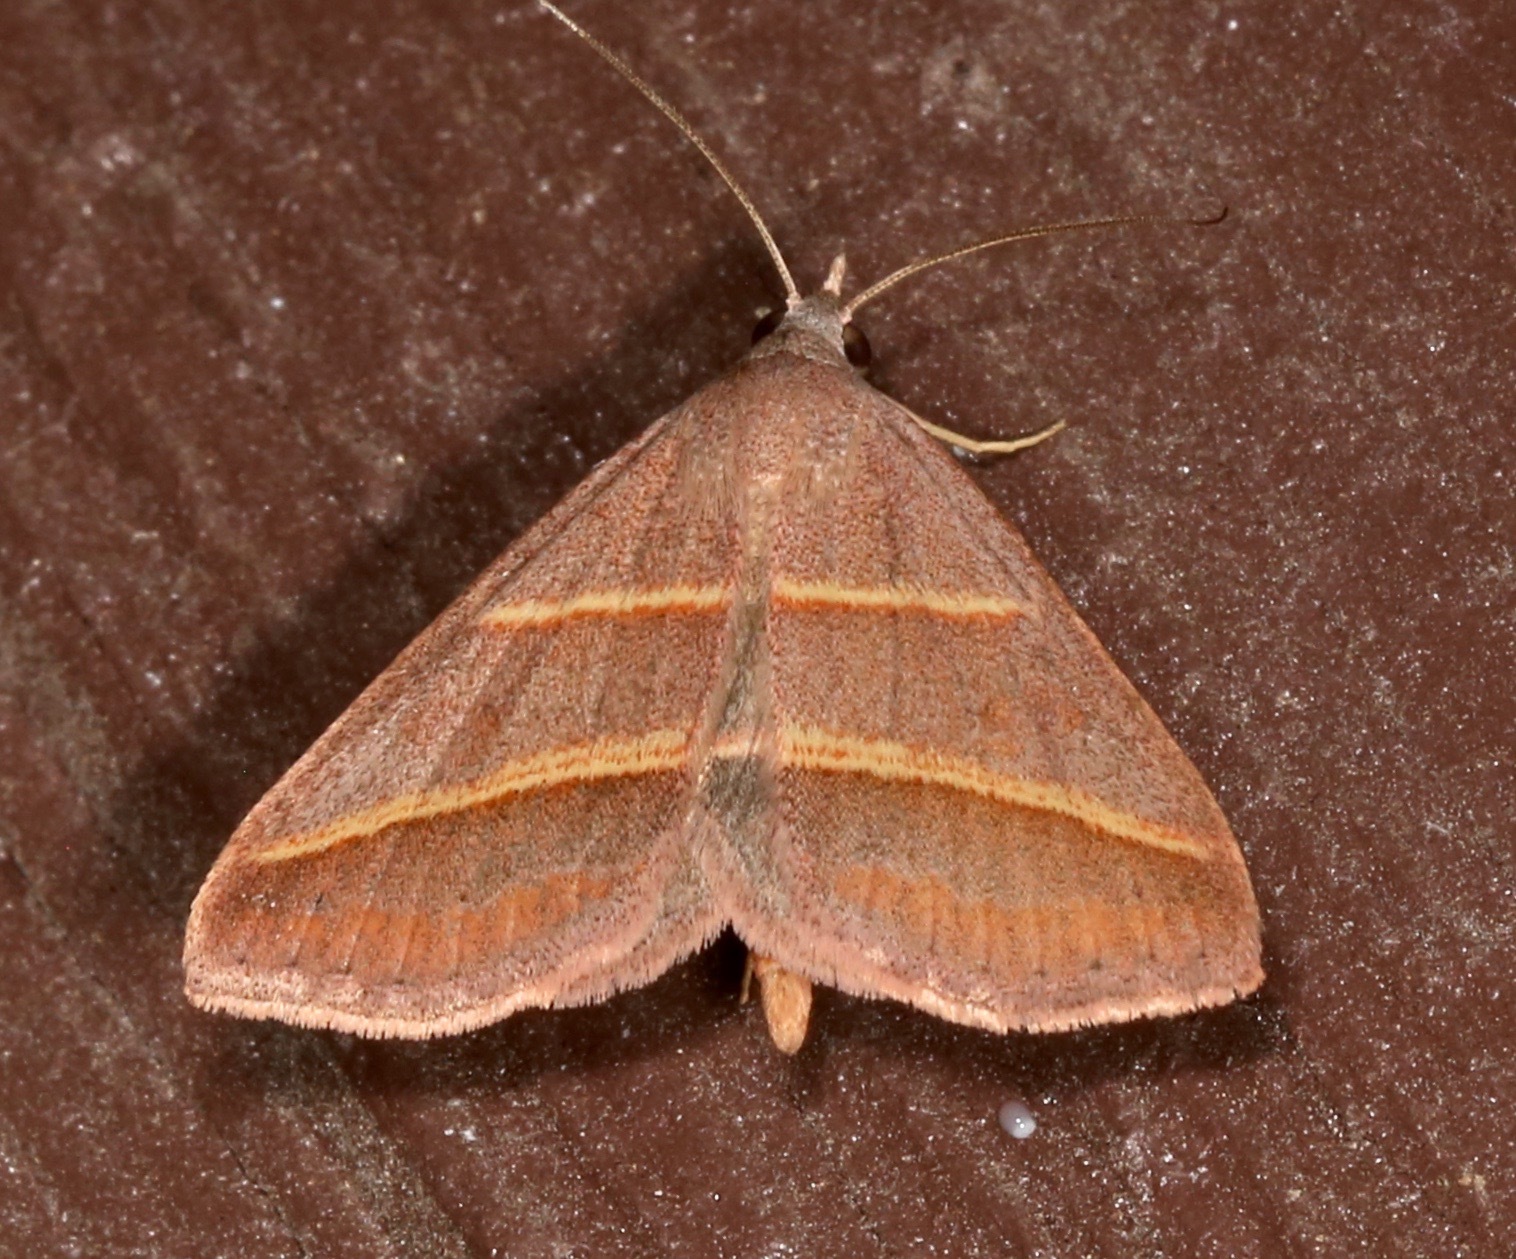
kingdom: Animalia
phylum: Arthropoda
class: Insecta
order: Lepidoptera
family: Erebidae
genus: Hemeroplanis
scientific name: Hemeroplanis parallela
